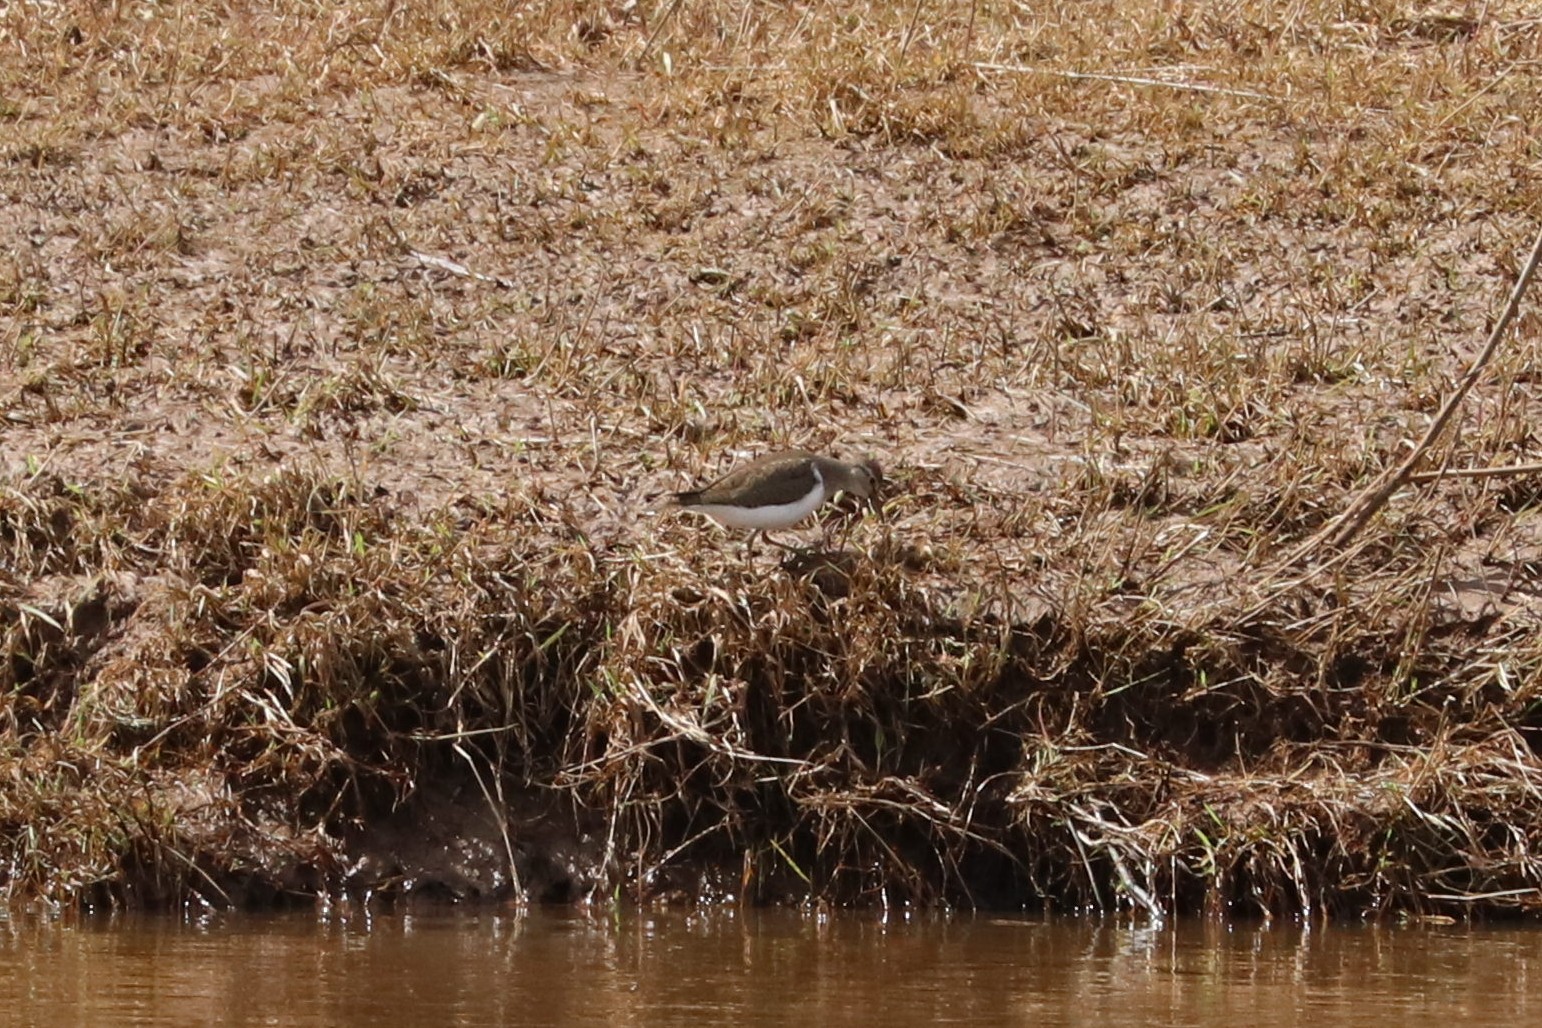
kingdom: Animalia
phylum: Chordata
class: Aves
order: Charadriiformes
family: Scolopacidae
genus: Actitis
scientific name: Actitis hypoleucos
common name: Common sandpiper
